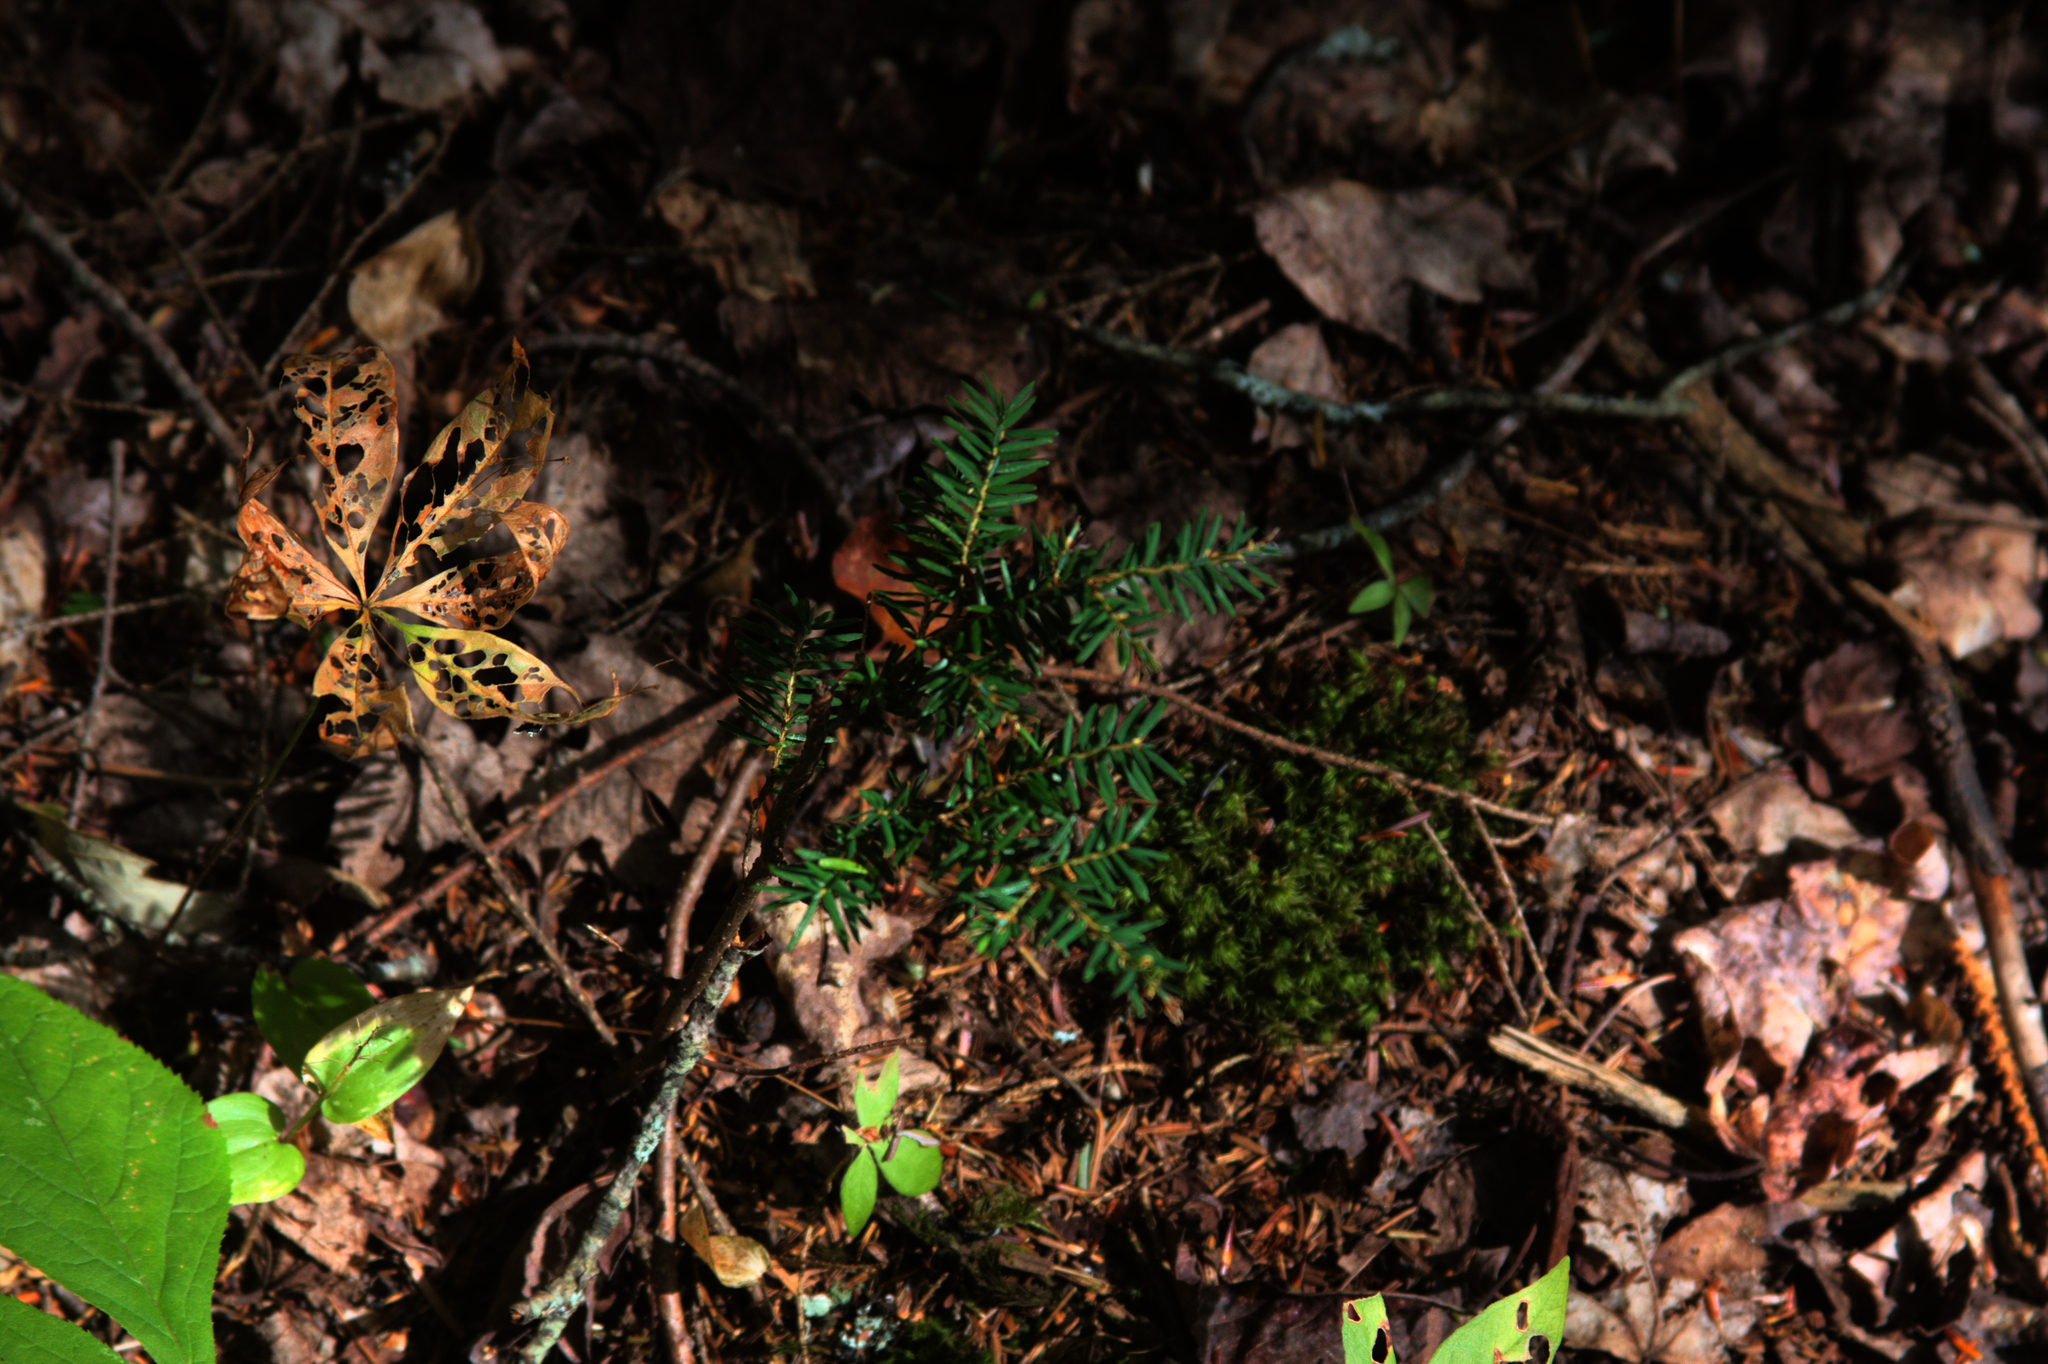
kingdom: Plantae
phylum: Tracheophyta
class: Pinopsida
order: Pinales
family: Pinaceae
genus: Tsuga
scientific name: Tsuga canadensis
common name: Eastern hemlock
